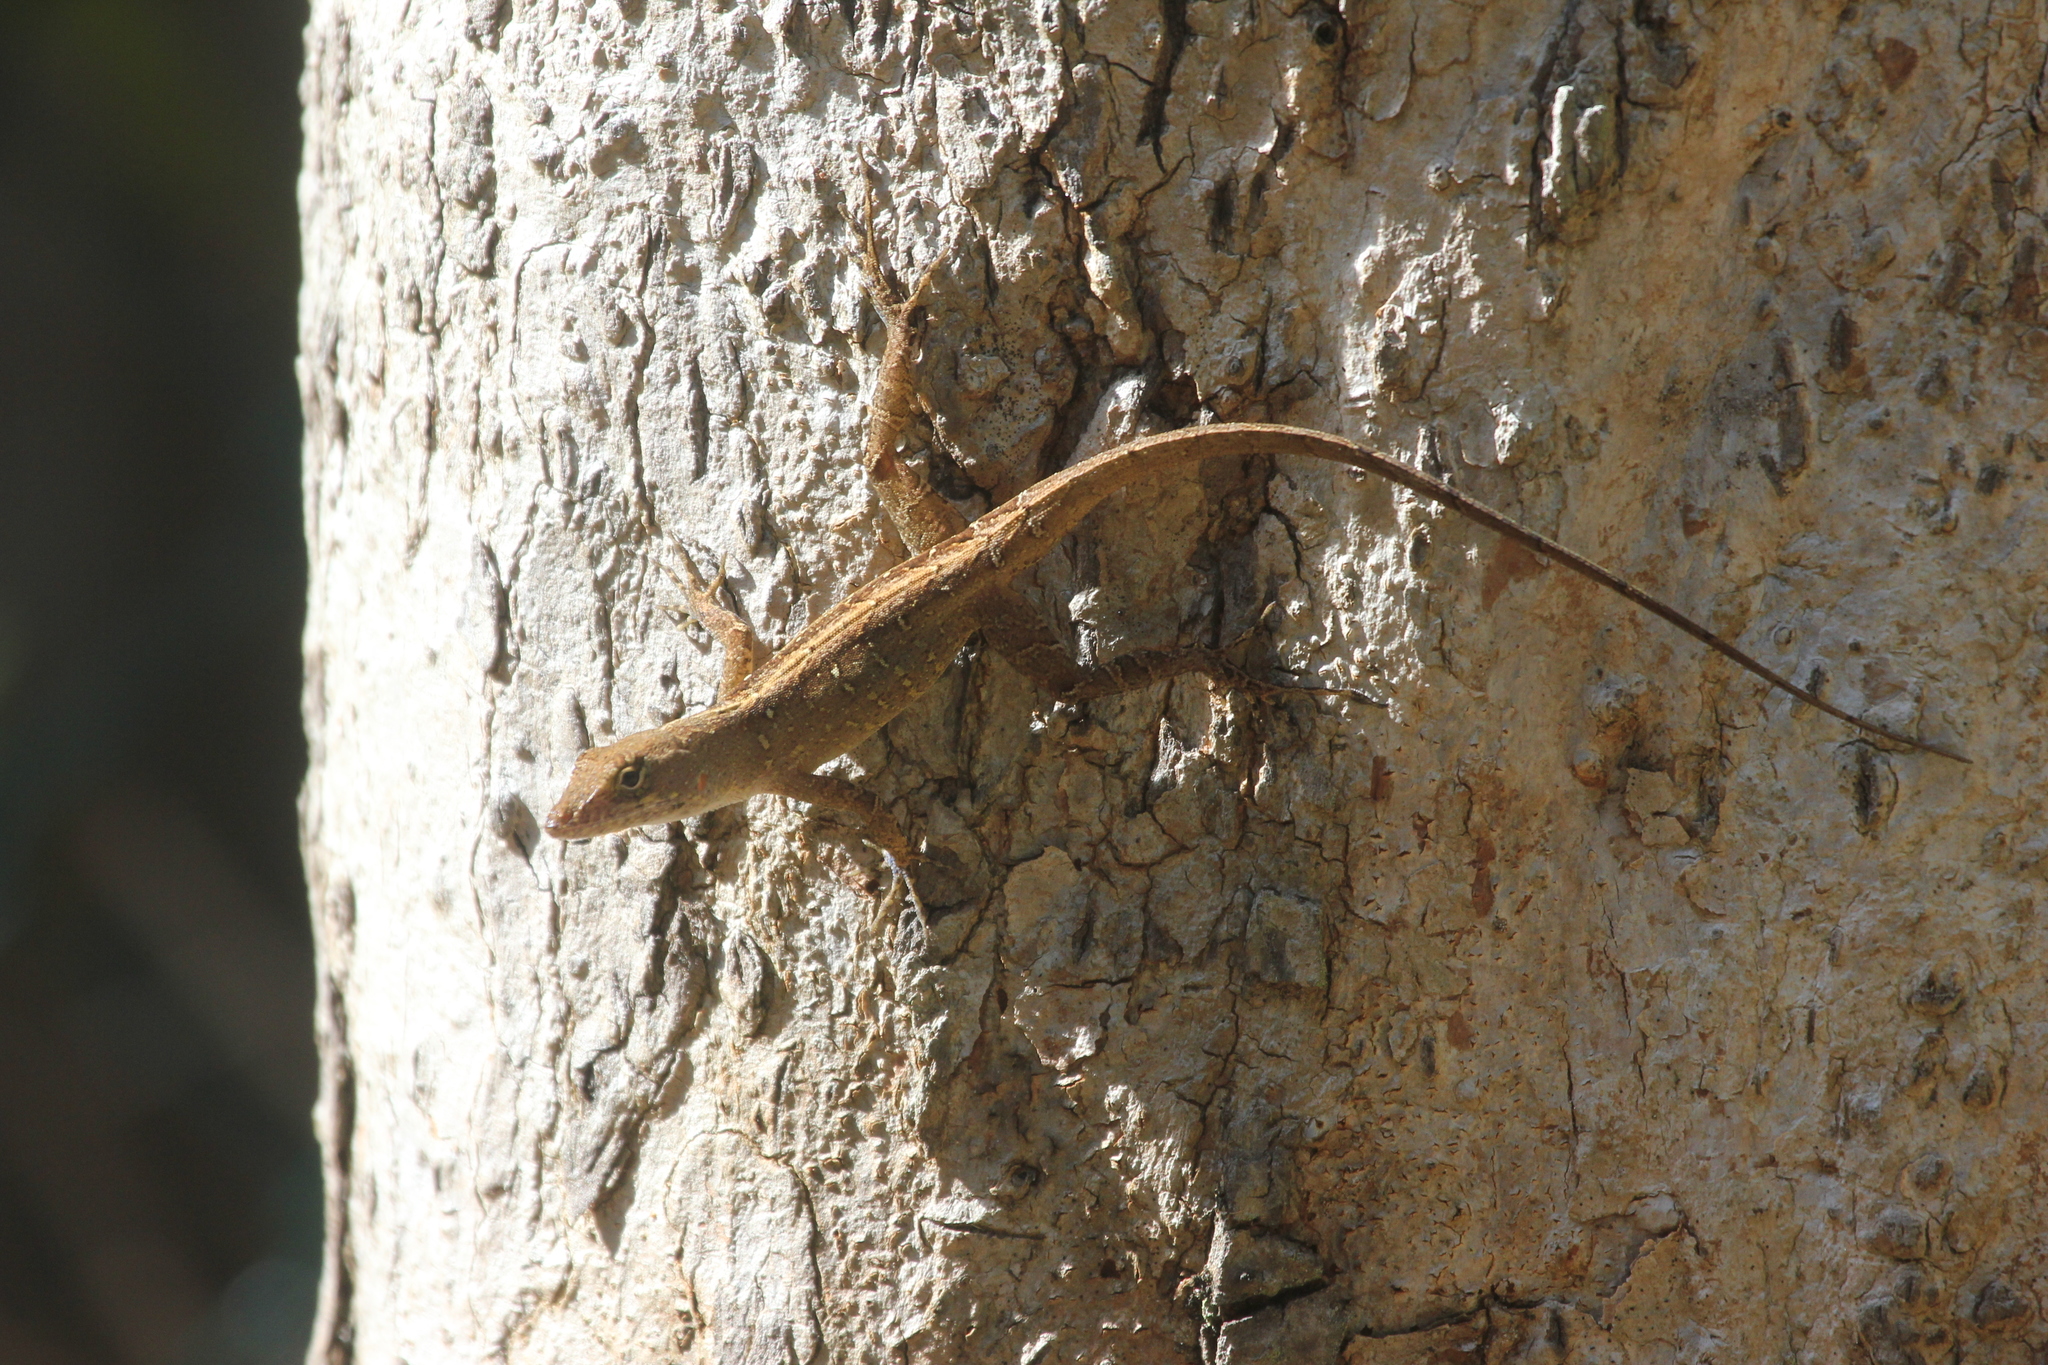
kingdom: Animalia
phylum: Chordata
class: Squamata
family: Dactyloidae
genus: Anolis
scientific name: Anolis sagrei
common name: Brown anole
